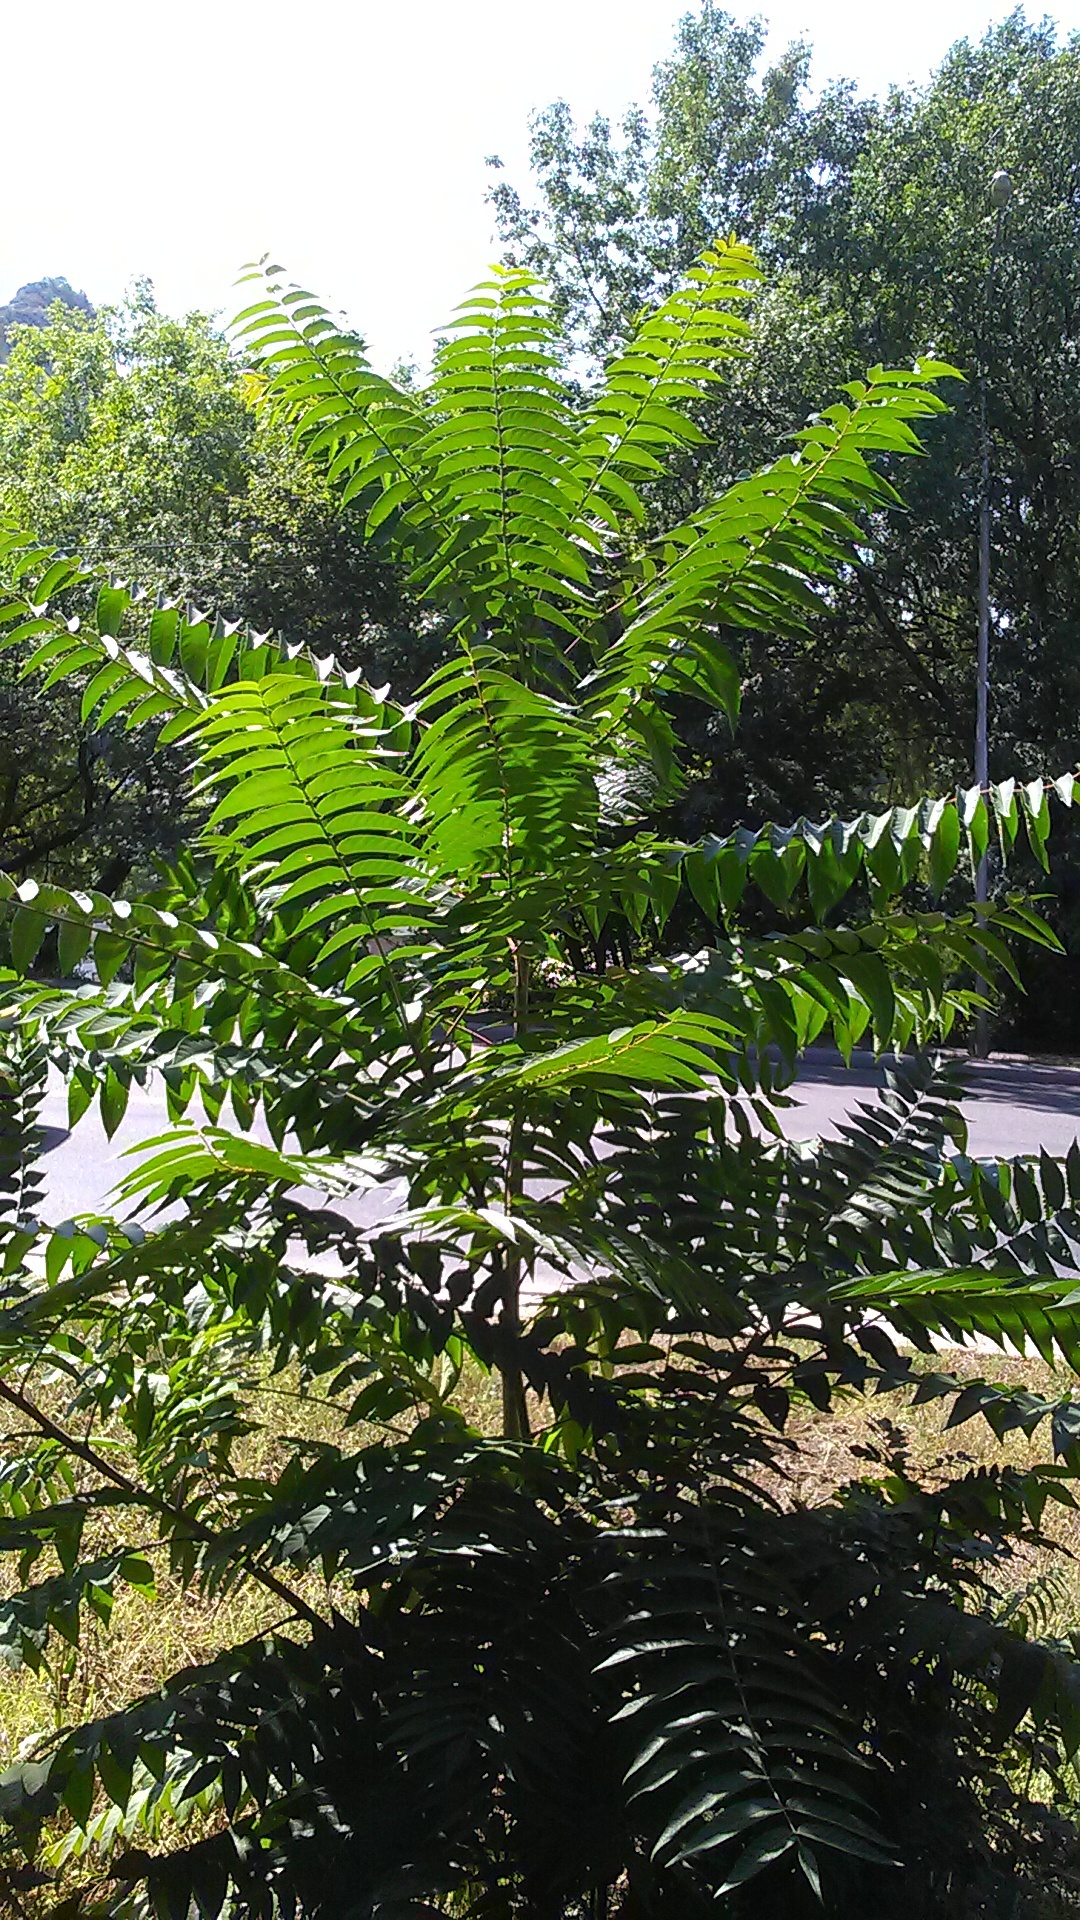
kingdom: Plantae
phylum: Tracheophyta
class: Magnoliopsida
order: Sapindales
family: Simaroubaceae
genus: Ailanthus
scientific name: Ailanthus altissima
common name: Tree-of-heaven
